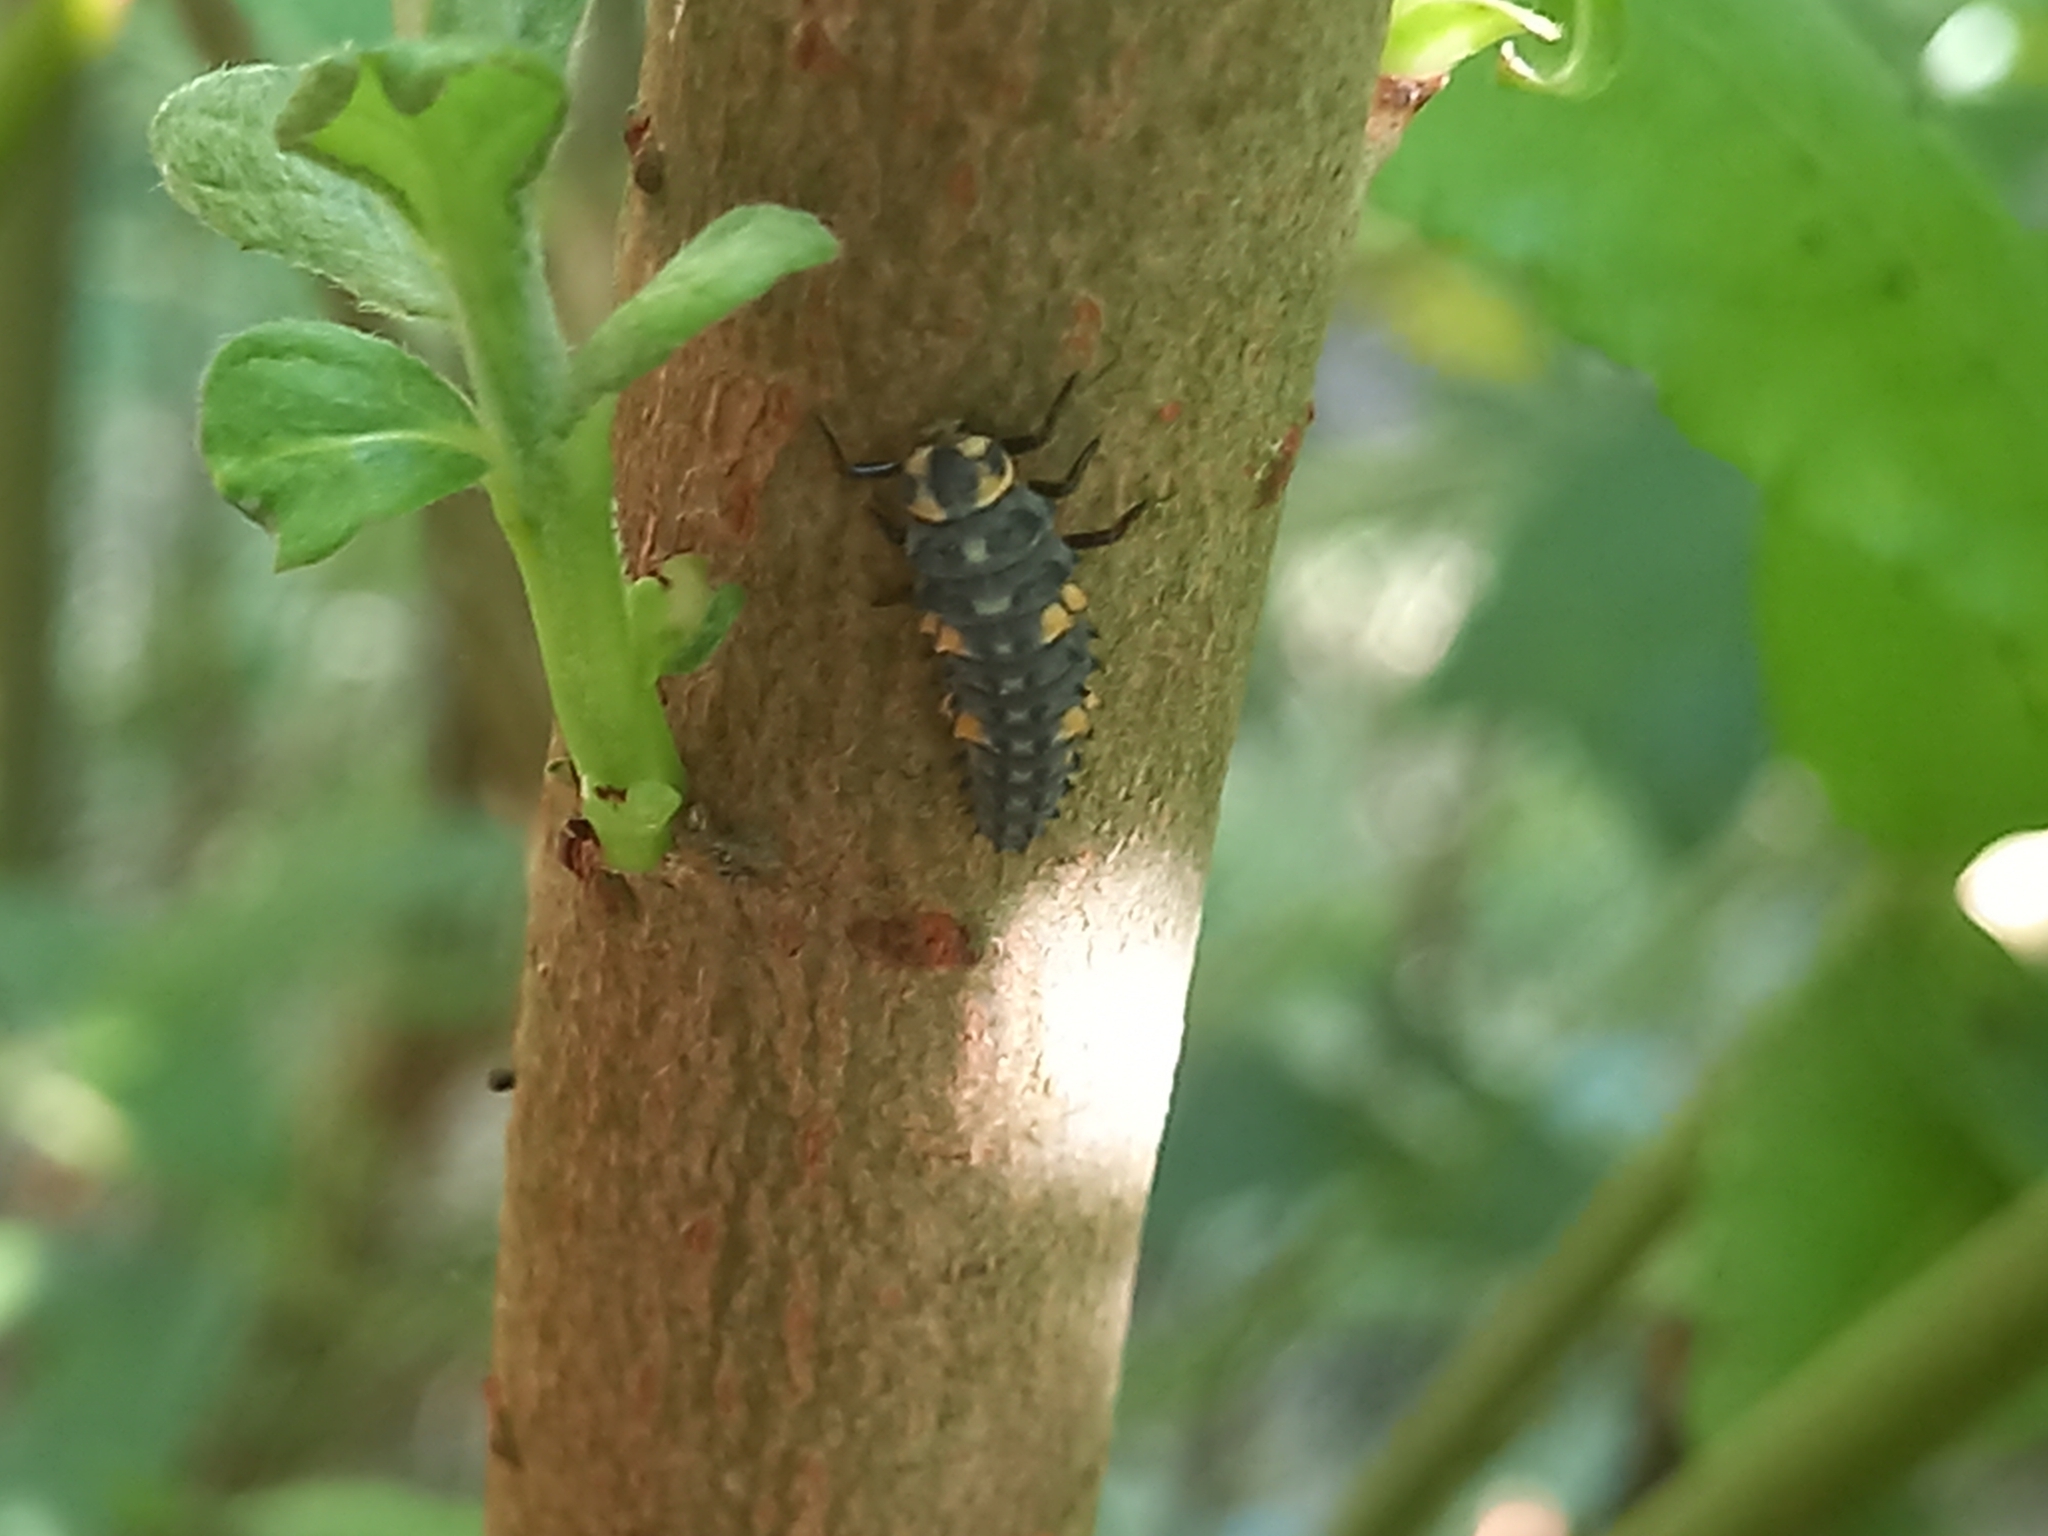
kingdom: Animalia
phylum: Arthropoda
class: Insecta
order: Coleoptera
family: Coccinellidae
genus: Coccinella
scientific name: Coccinella septempunctata
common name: Sevenspotted lady beetle
